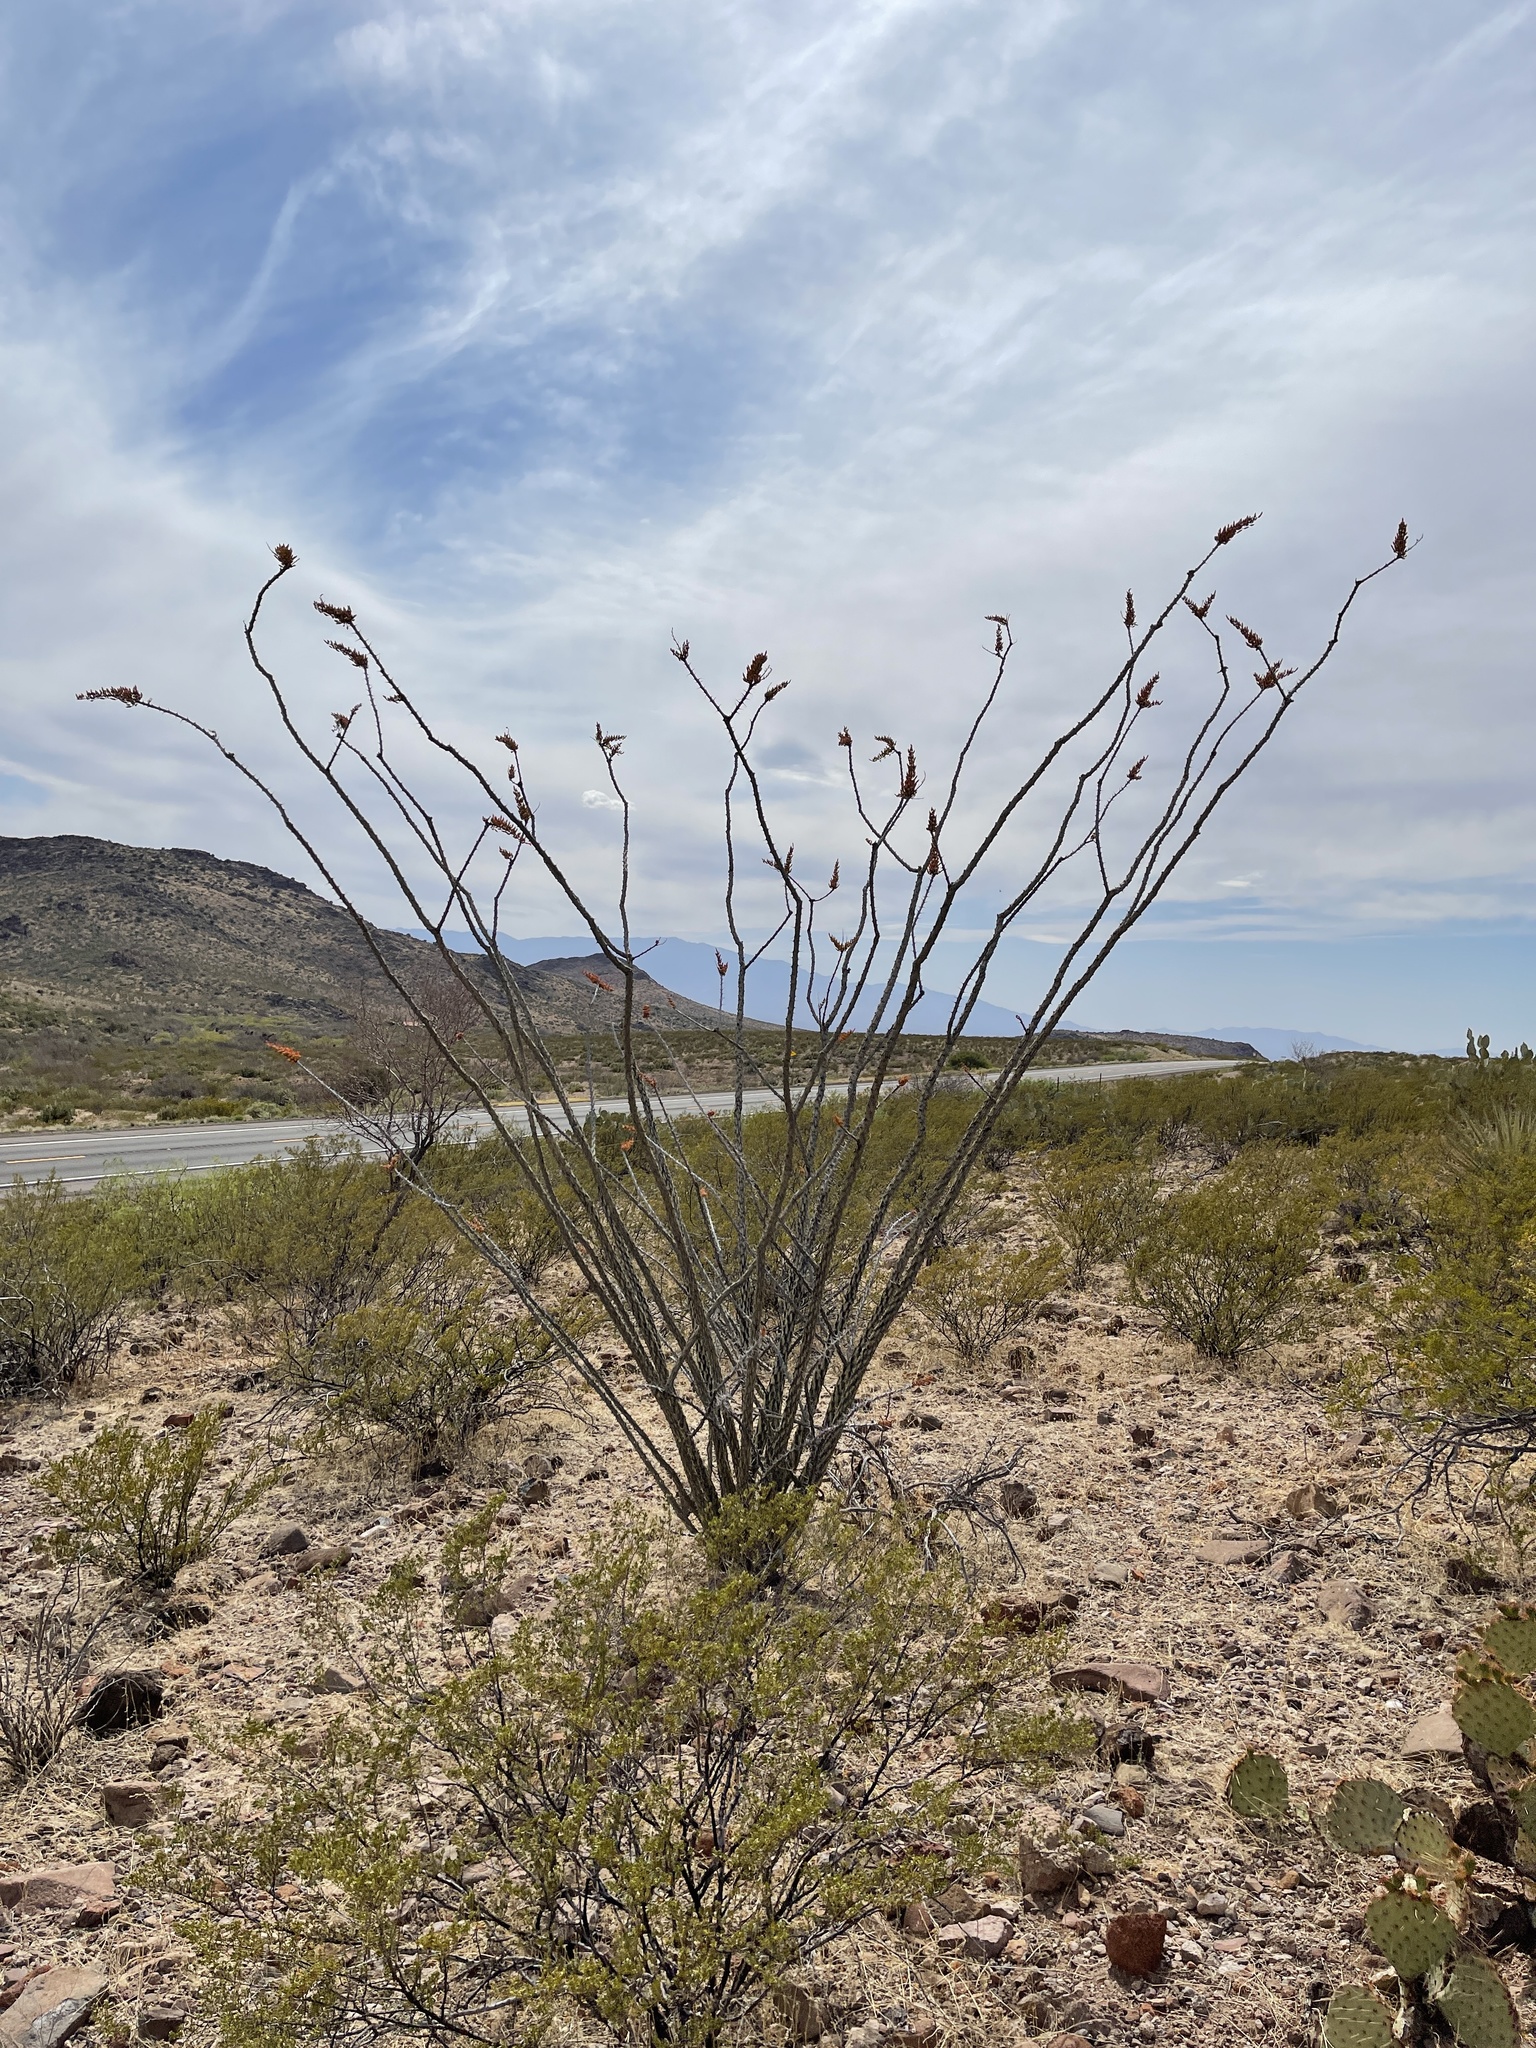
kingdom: Plantae
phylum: Tracheophyta
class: Magnoliopsida
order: Ericales
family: Fouquieriaceae
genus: Fouquieria
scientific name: Fouquieria splendens
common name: Vine-cactus
